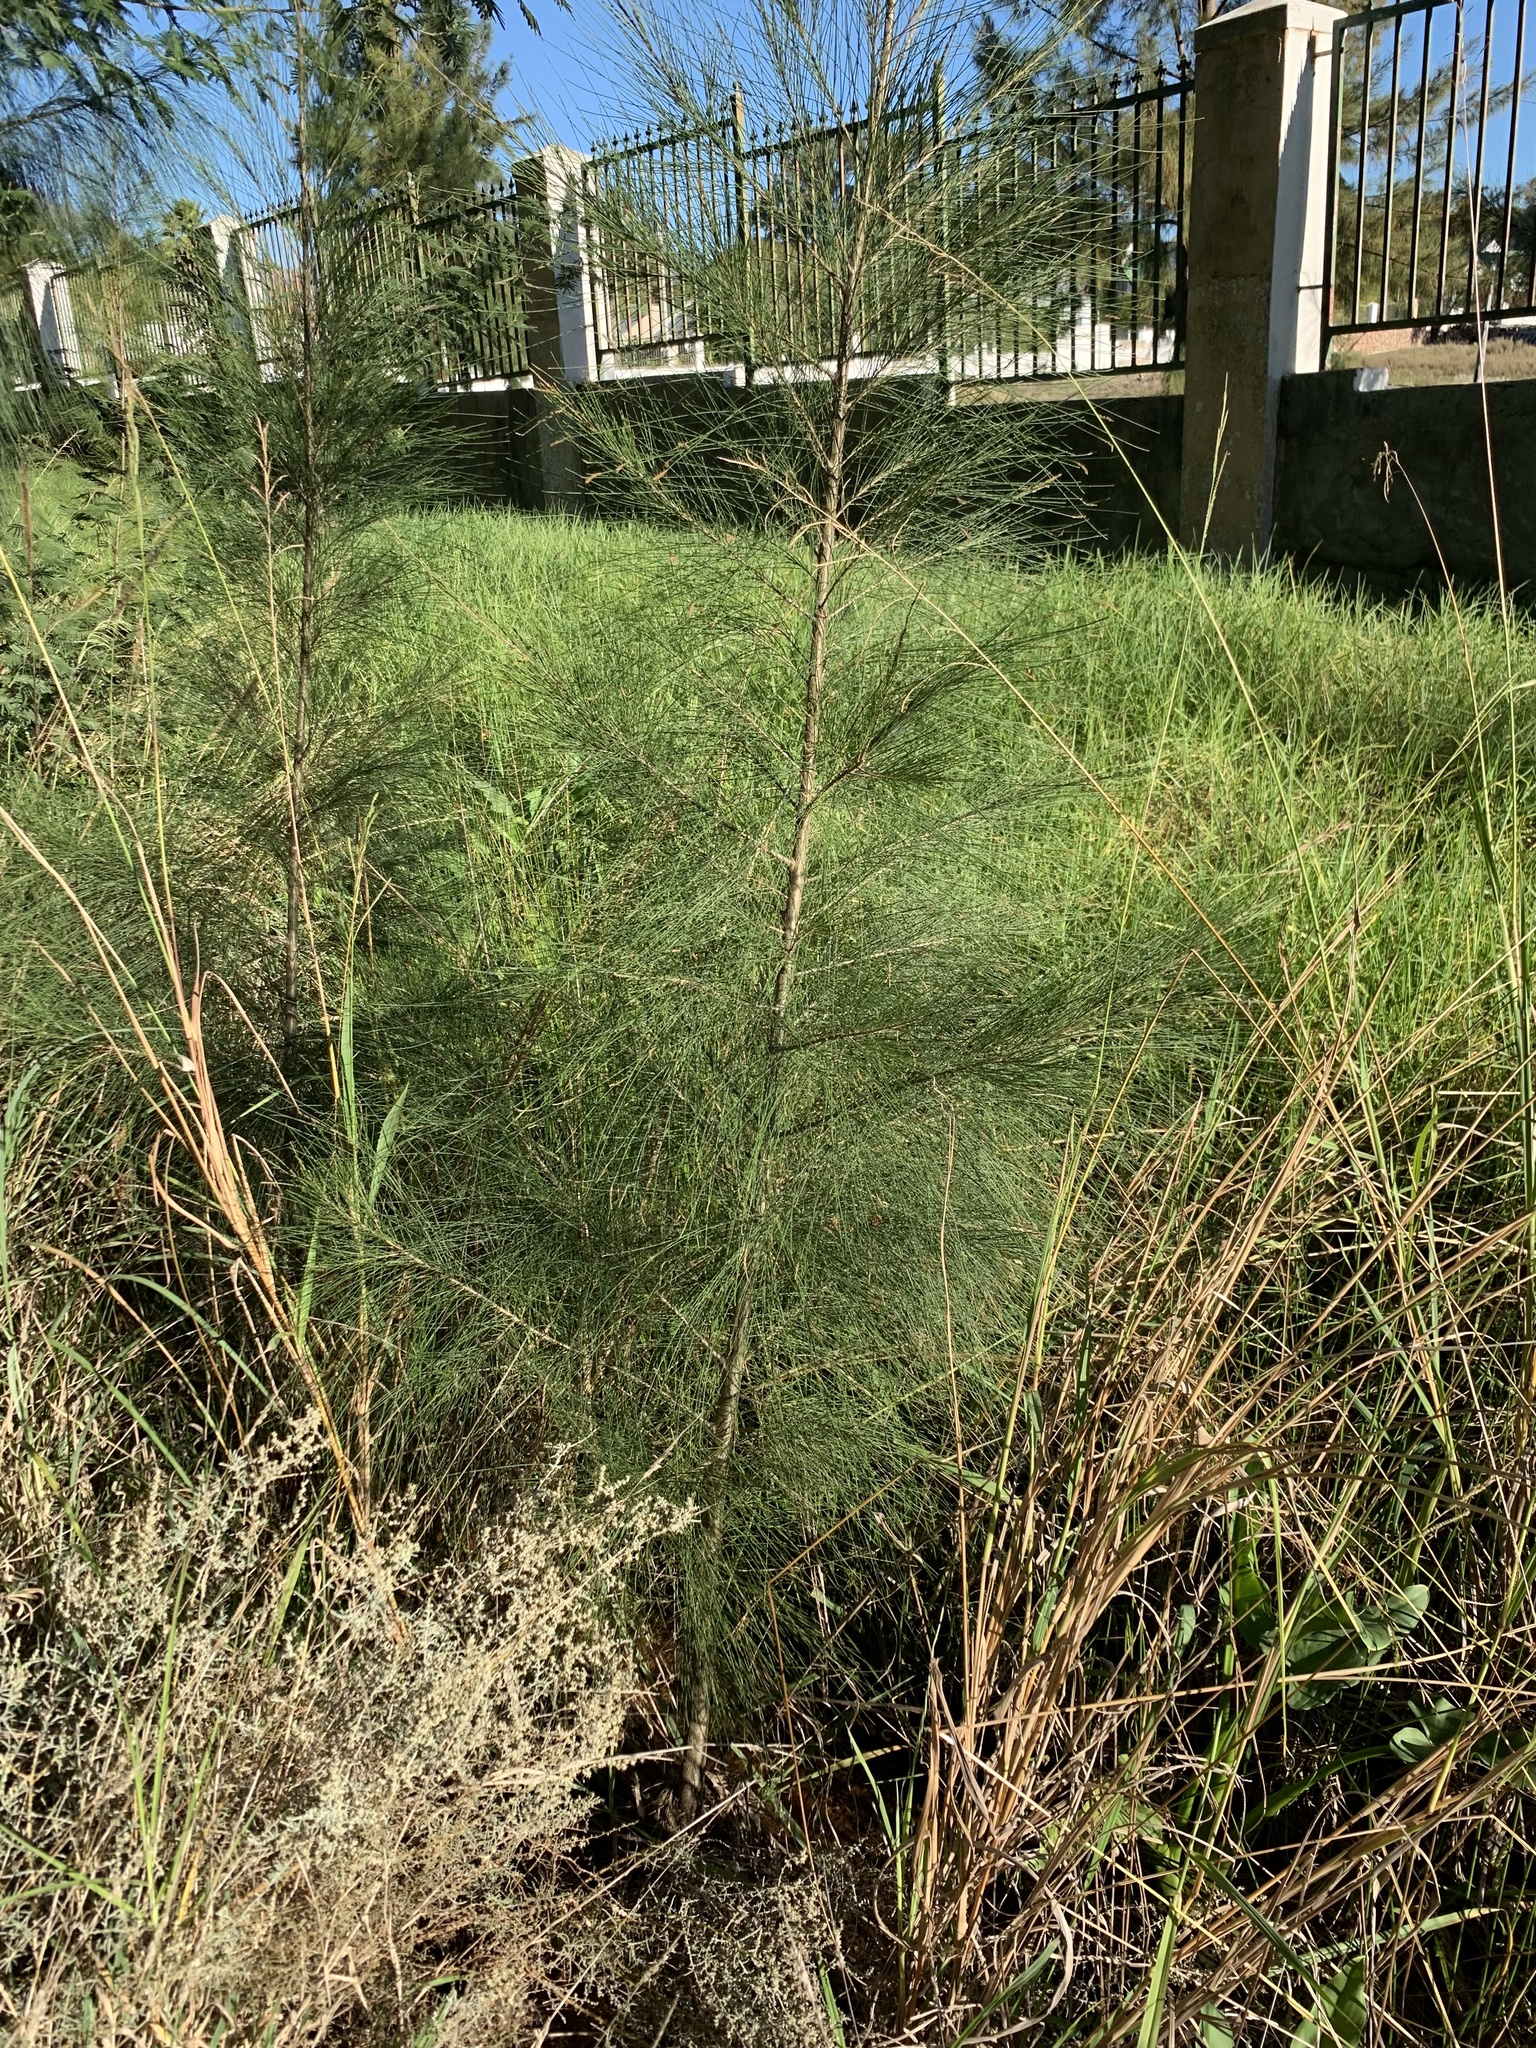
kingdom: Plantae
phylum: Tracheophyta
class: Magnoliopsida
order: Fagales
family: Casuarinaceae
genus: Casuarina
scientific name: Casuarina cunninghamiana
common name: River sheoak
